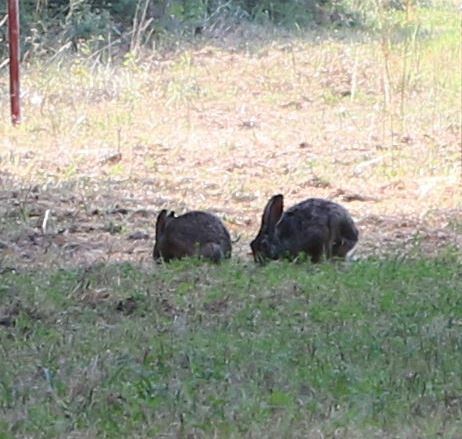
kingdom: Animalia
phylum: Chordata
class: Mammalia
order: Lagomorpha
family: Leporidae
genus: Lepus
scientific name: Lepus europaeus
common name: European hare
